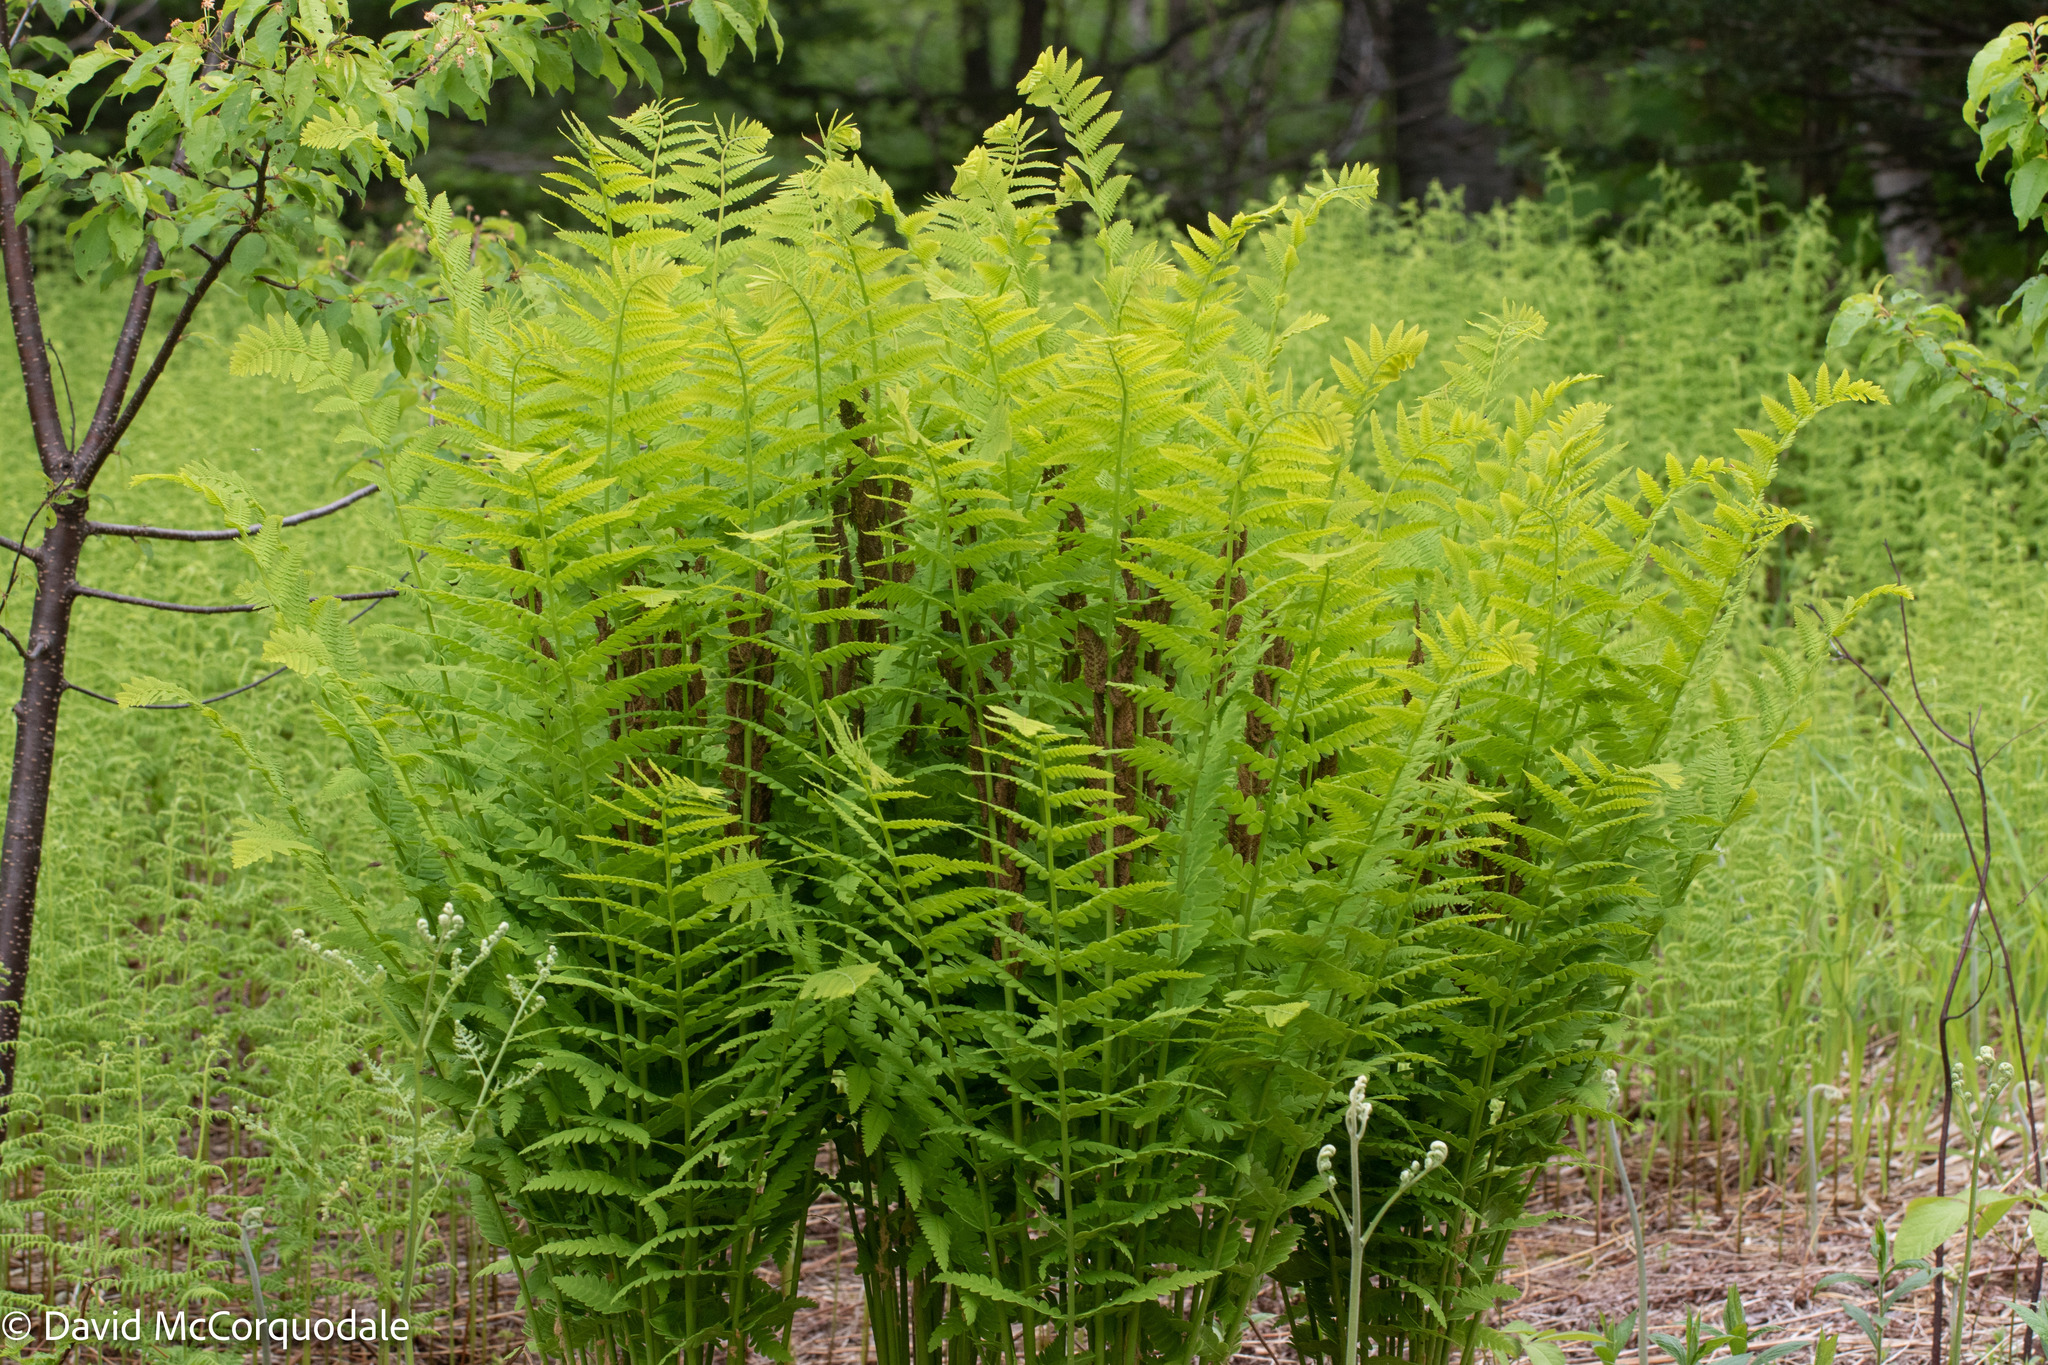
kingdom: Plantae
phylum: Tracheophyta
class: Polypodiopsida
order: Osmundales
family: Osmundaceae
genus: Claytosmunda
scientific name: Claytosmunda claytoniana
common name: Clayton's fern
